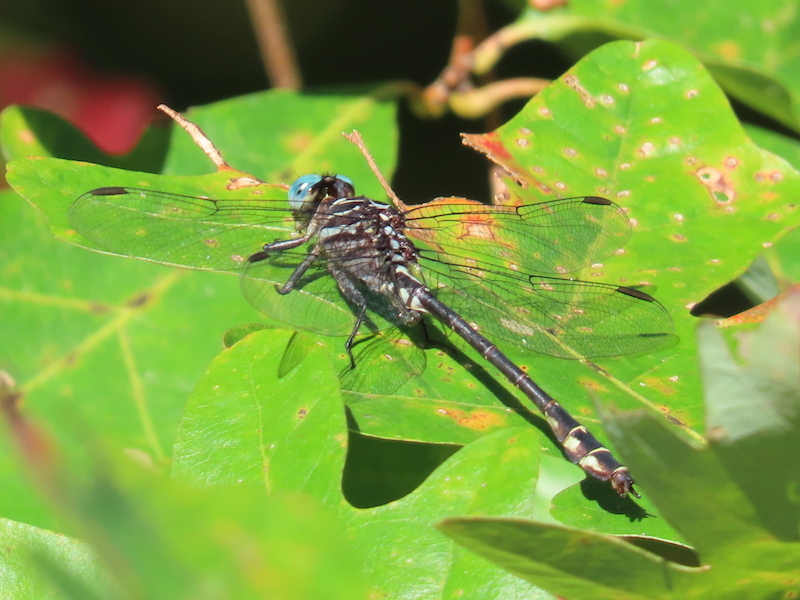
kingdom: Animalia
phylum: Arthropoda
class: Insecta
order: Odonata
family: Gomphidae
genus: Stylurus
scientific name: Stylurus notatus
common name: Elusive clubtail
